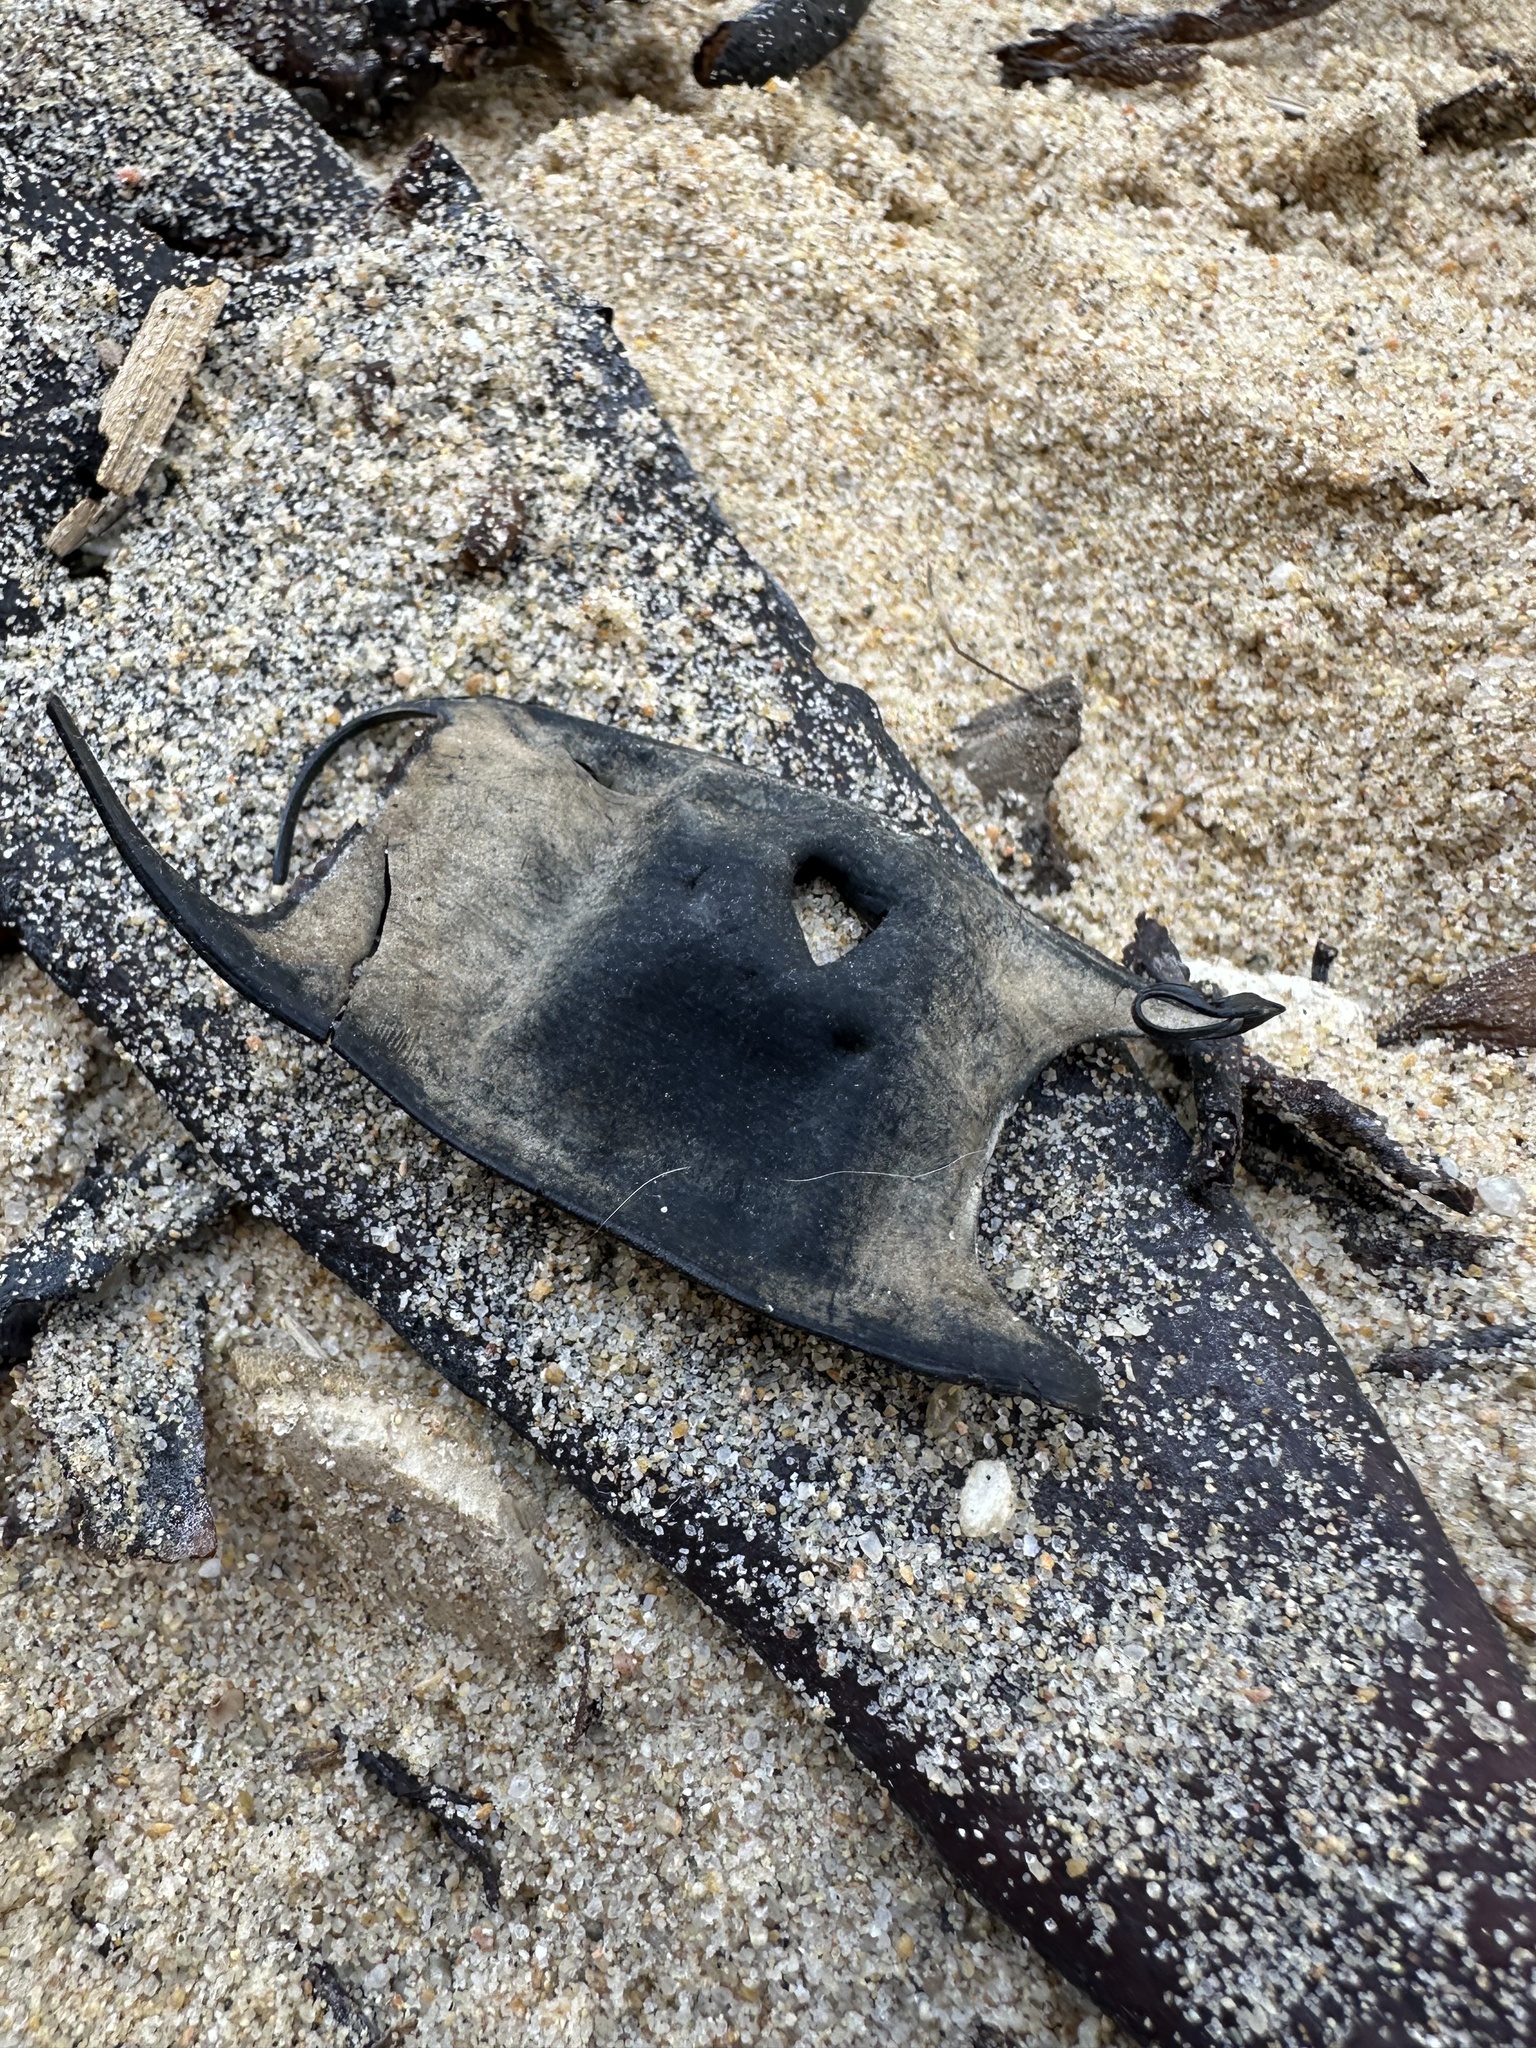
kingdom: Animalia
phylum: Chordata
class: Elasmobranchii
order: Rajiformes
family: Arhynchobatidae
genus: Sympterygia
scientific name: Sympterygia brevicaudata
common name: Shorttail fanskate
